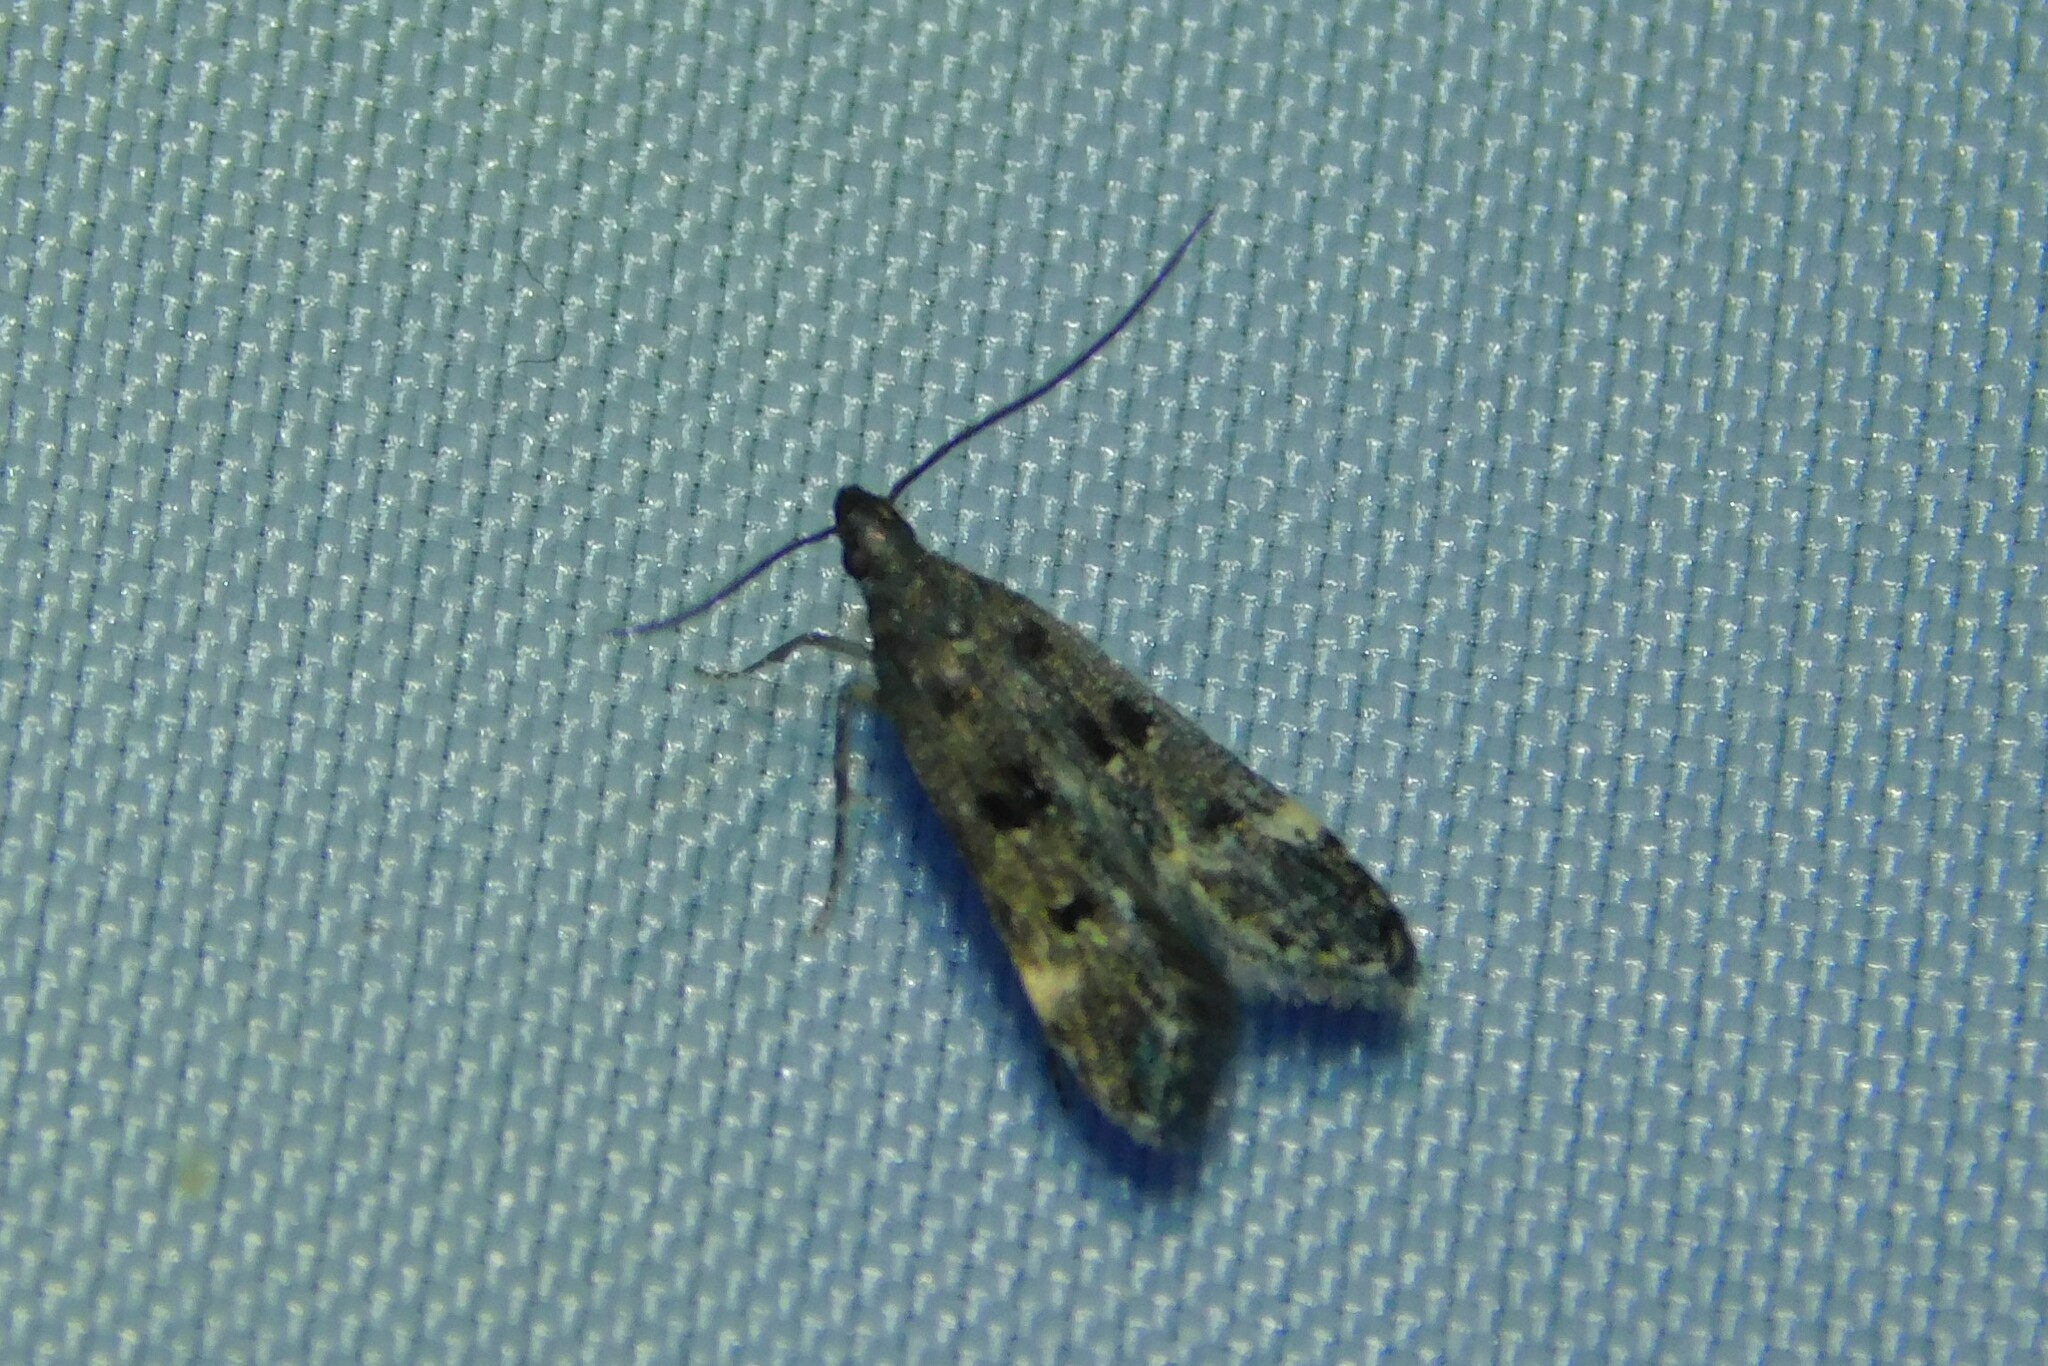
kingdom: Animalia
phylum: Arthropoda
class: Insecta
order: Lepidoptera
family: Gelechiidae
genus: Acanthophila
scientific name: Acanthophila alacella
